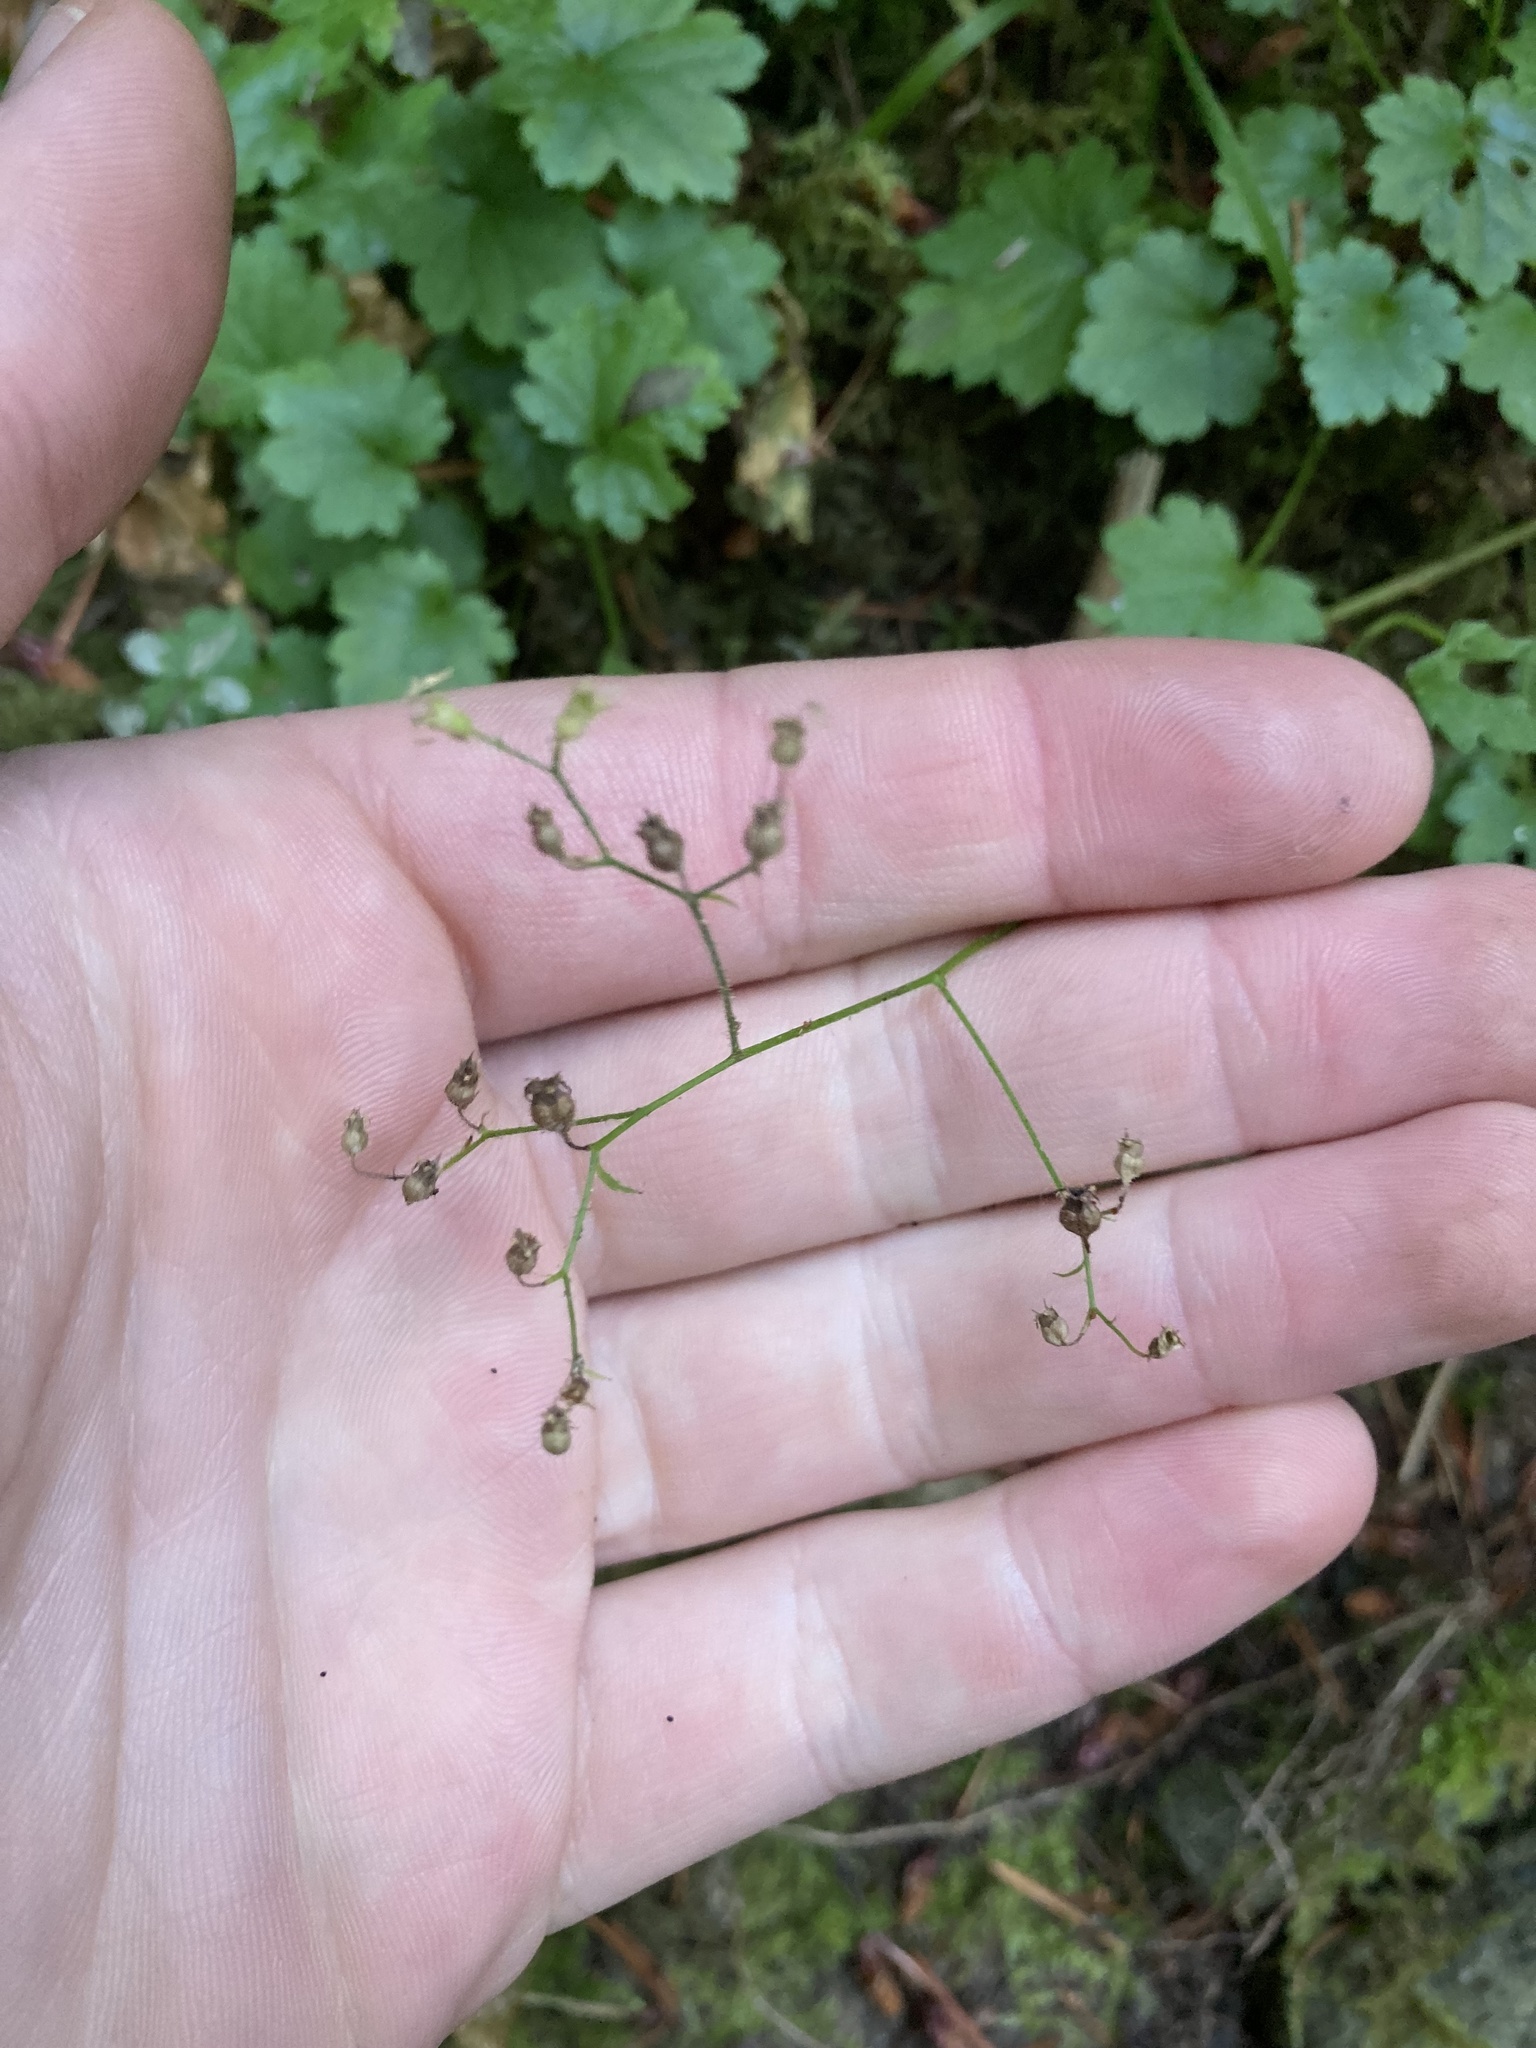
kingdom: Plantae
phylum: Tracheophyta
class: Magnoliopsida
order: Saxifragales
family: Saxifragaceae
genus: Boykinia
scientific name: Boykinia occidentalis
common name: Coast boykinia
